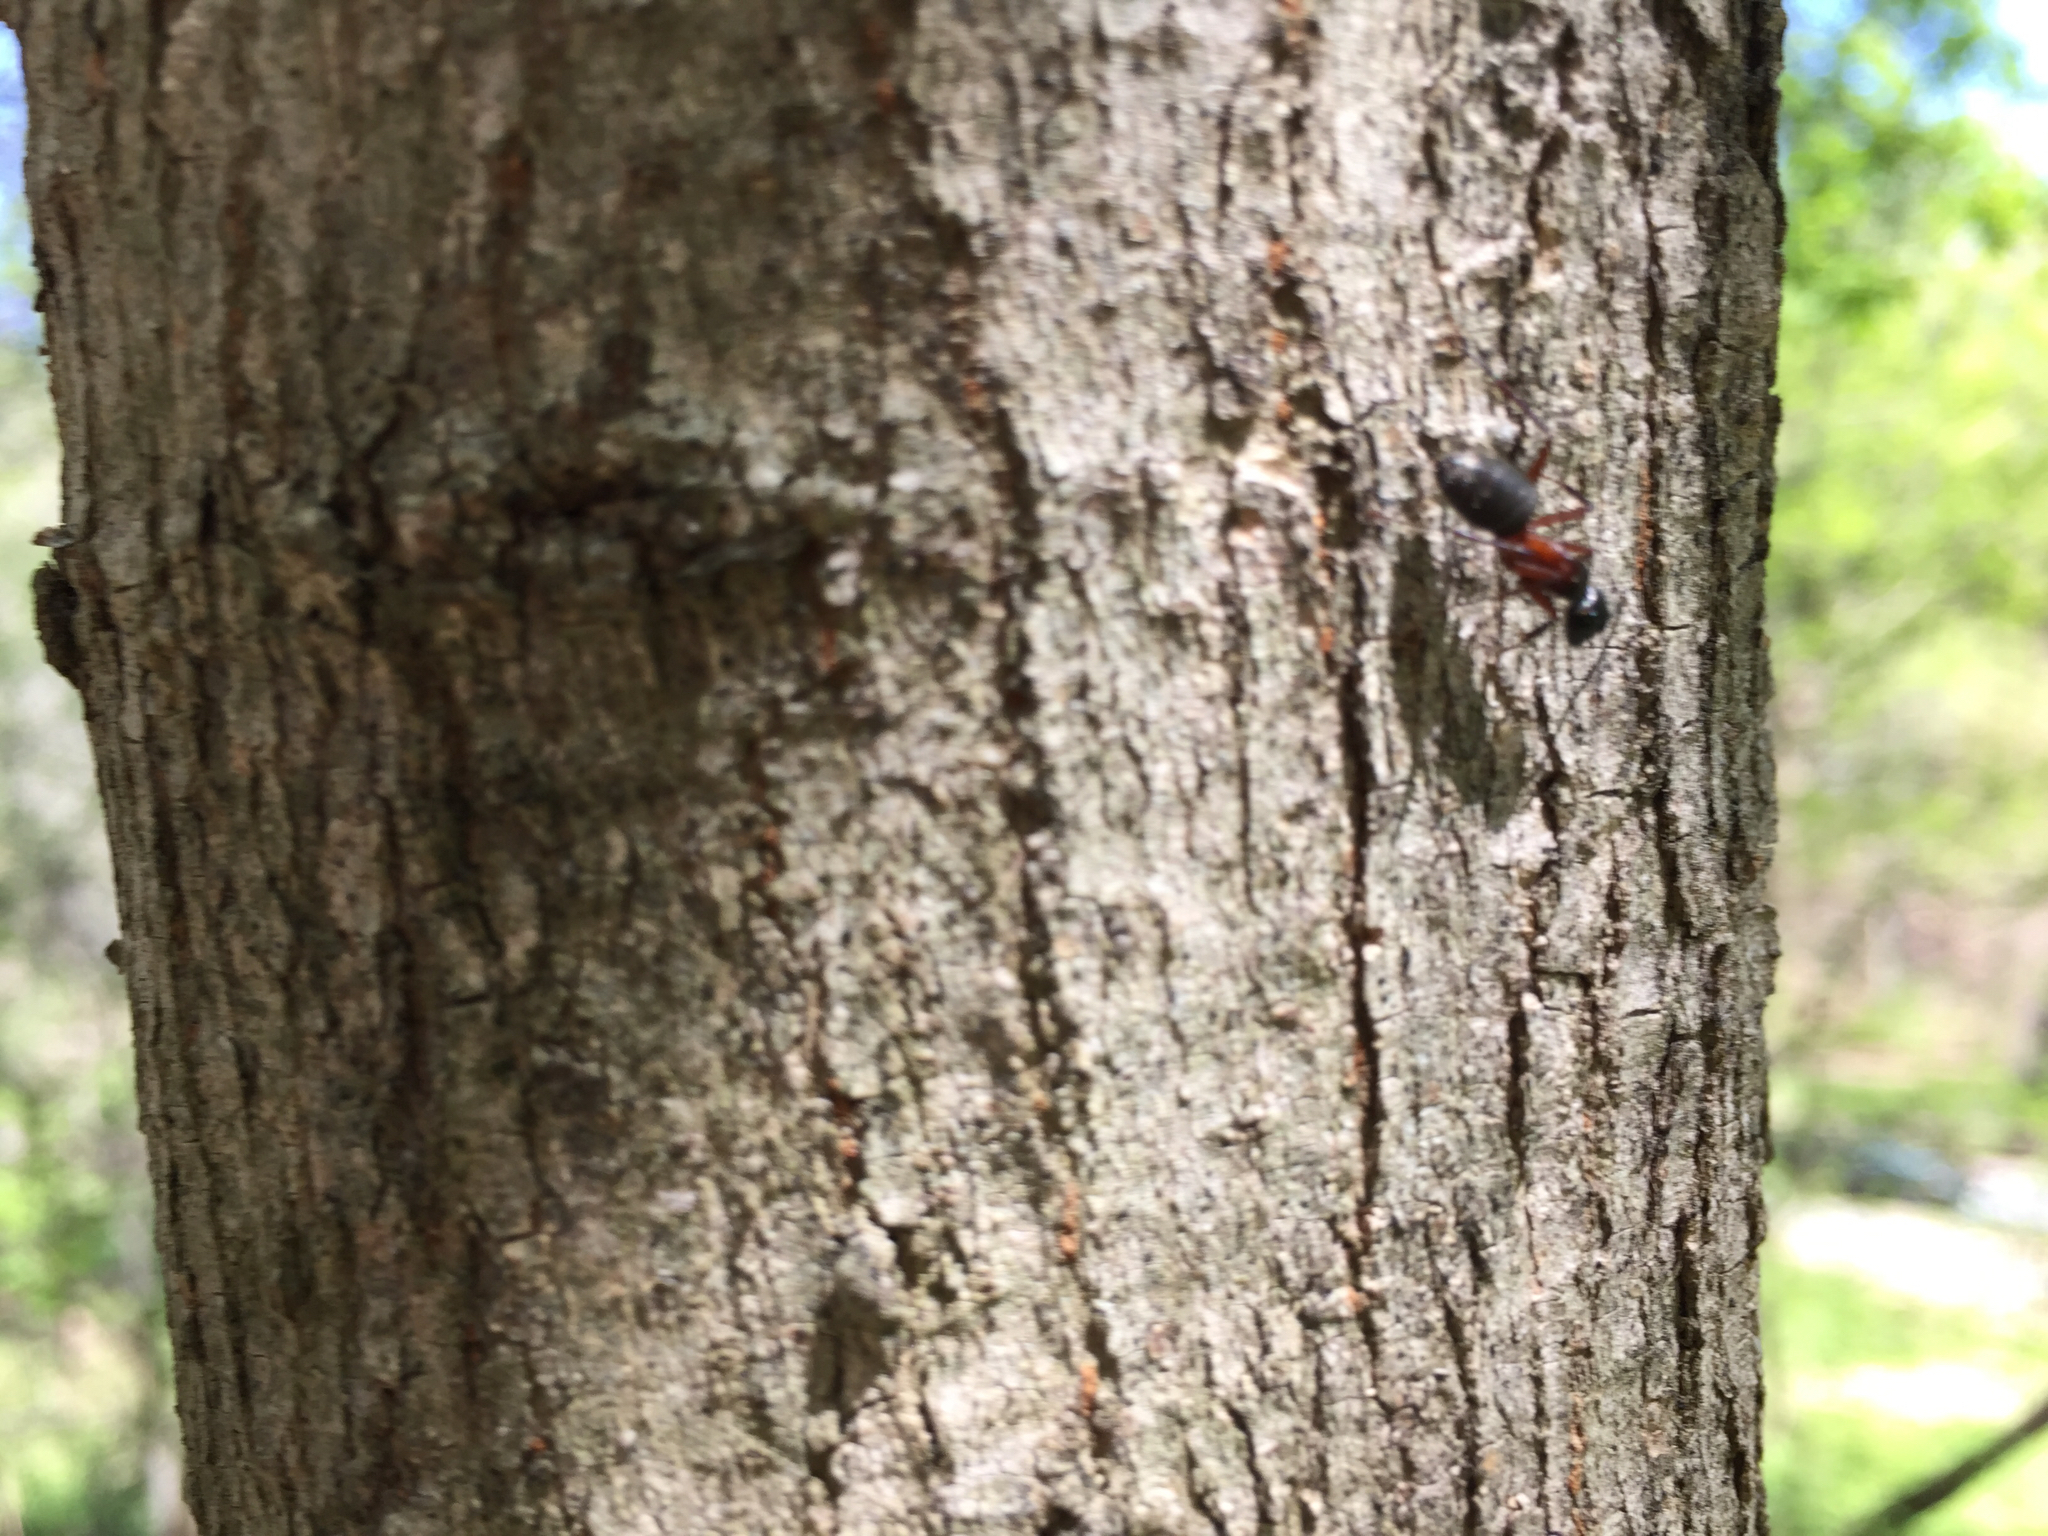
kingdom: Animalia
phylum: Arthropoda
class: Insecta
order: Hymenoptera
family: Formicidae
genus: Camponotus
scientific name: Camponotus chromaiodes
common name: Red carpenter ant
